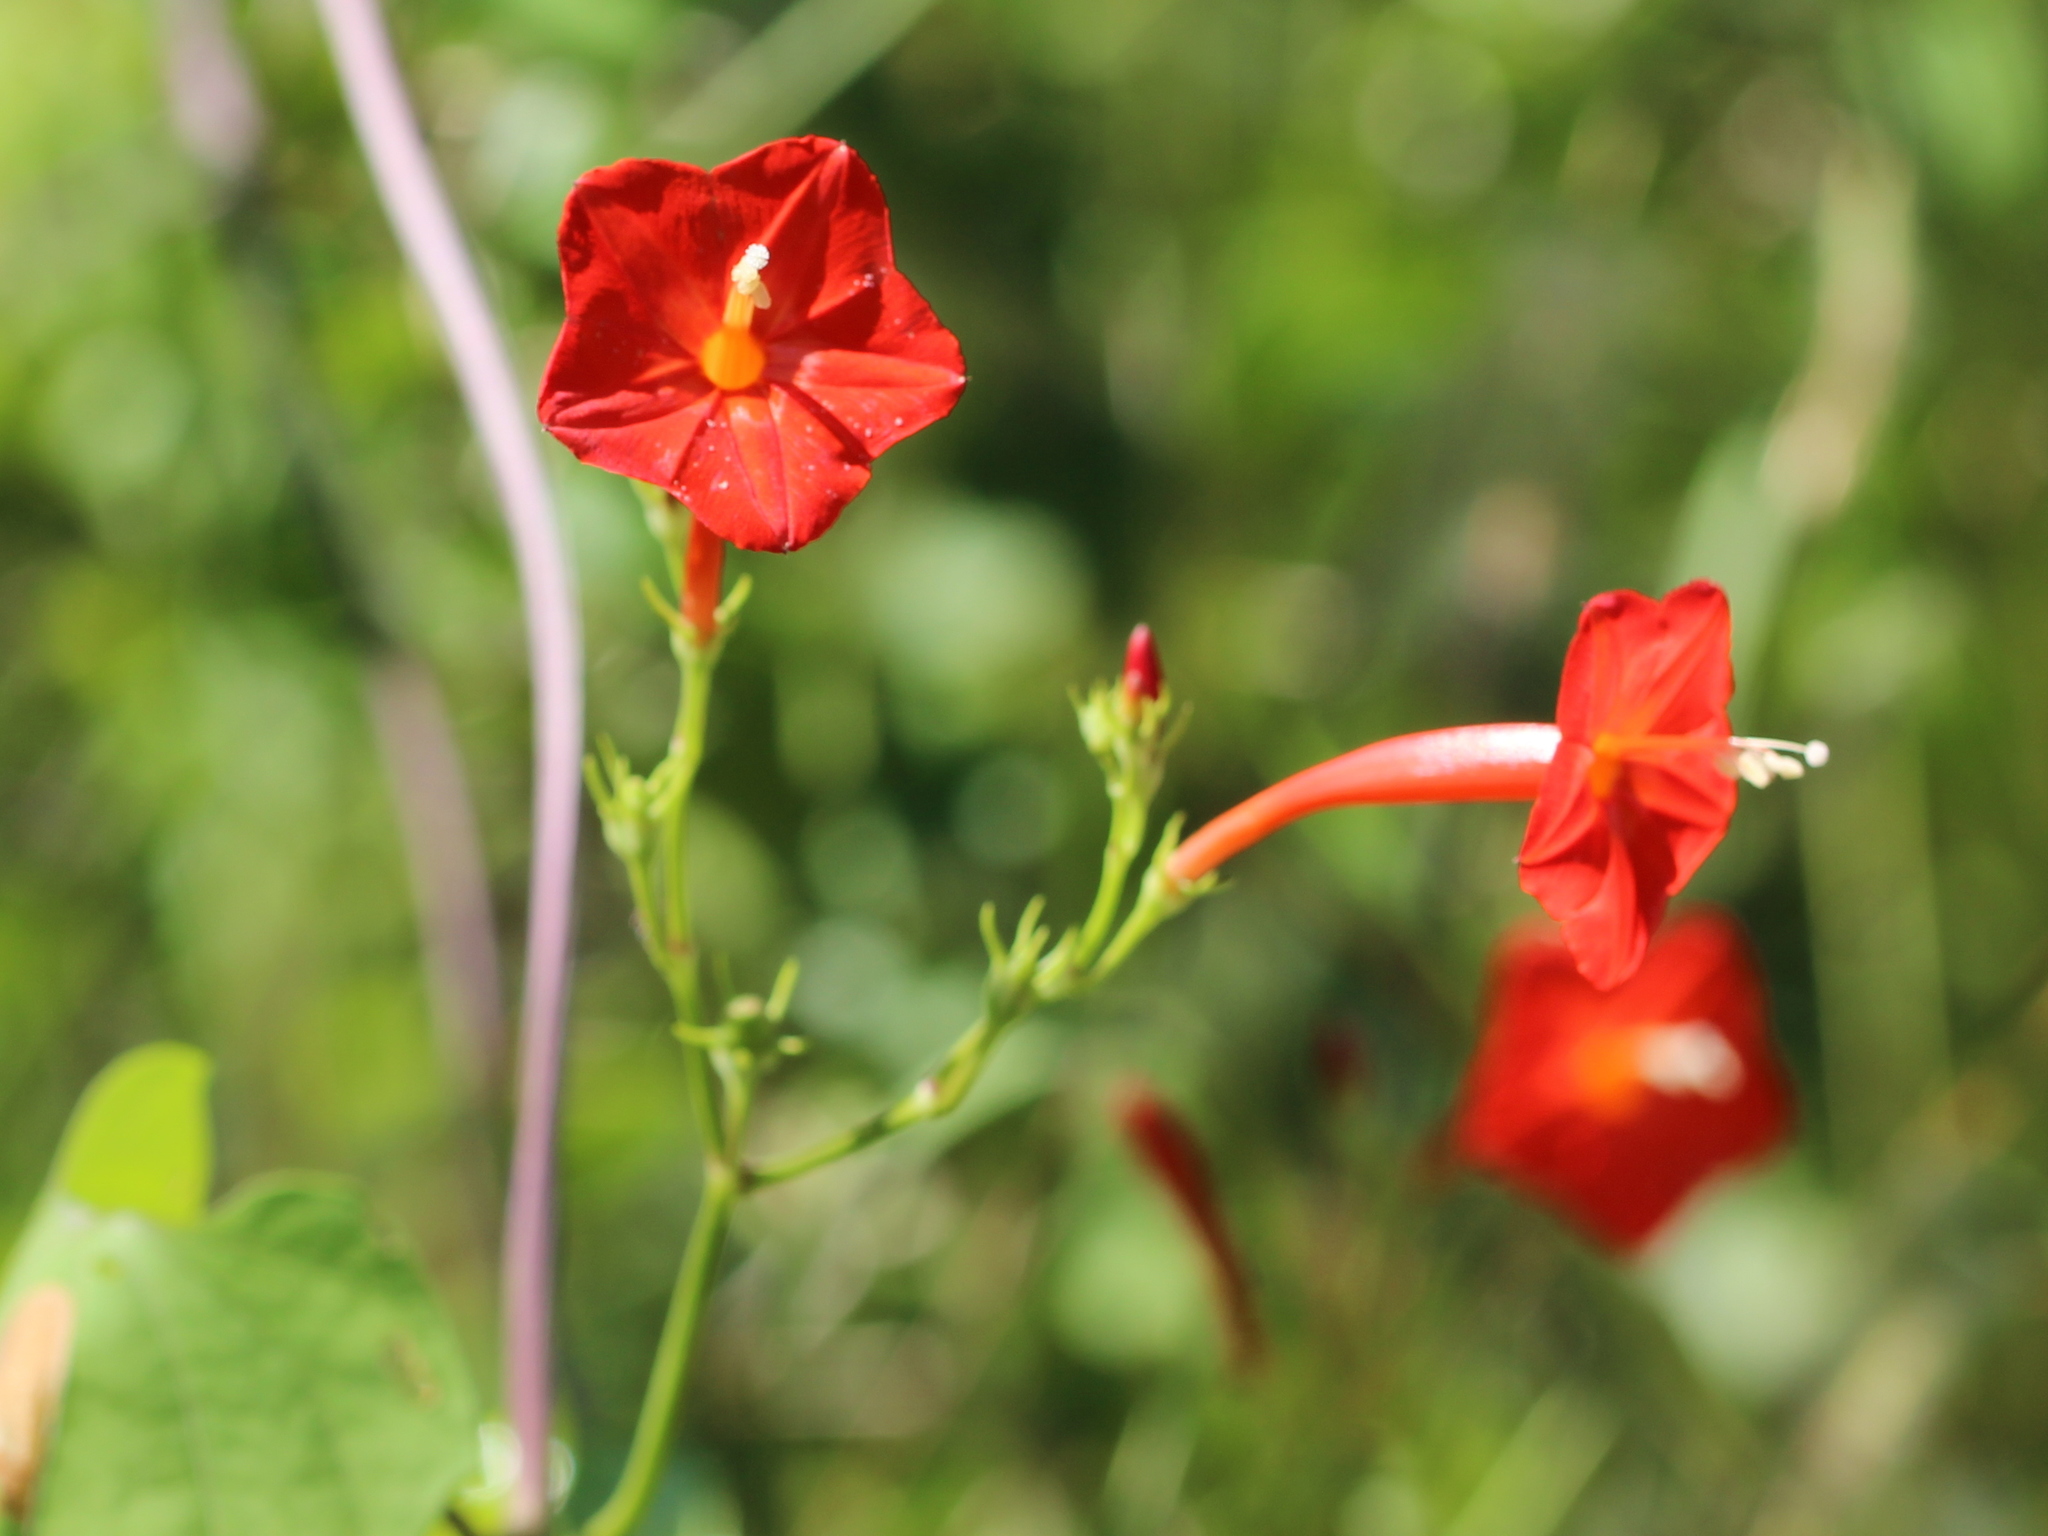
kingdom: Plantae
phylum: Tracheophyta
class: Magnoliopsida
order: Solanales
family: Convolvulaceae
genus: Ipomoea
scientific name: Ipomoea hederifolia
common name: Ivy-leaf morning-glory
